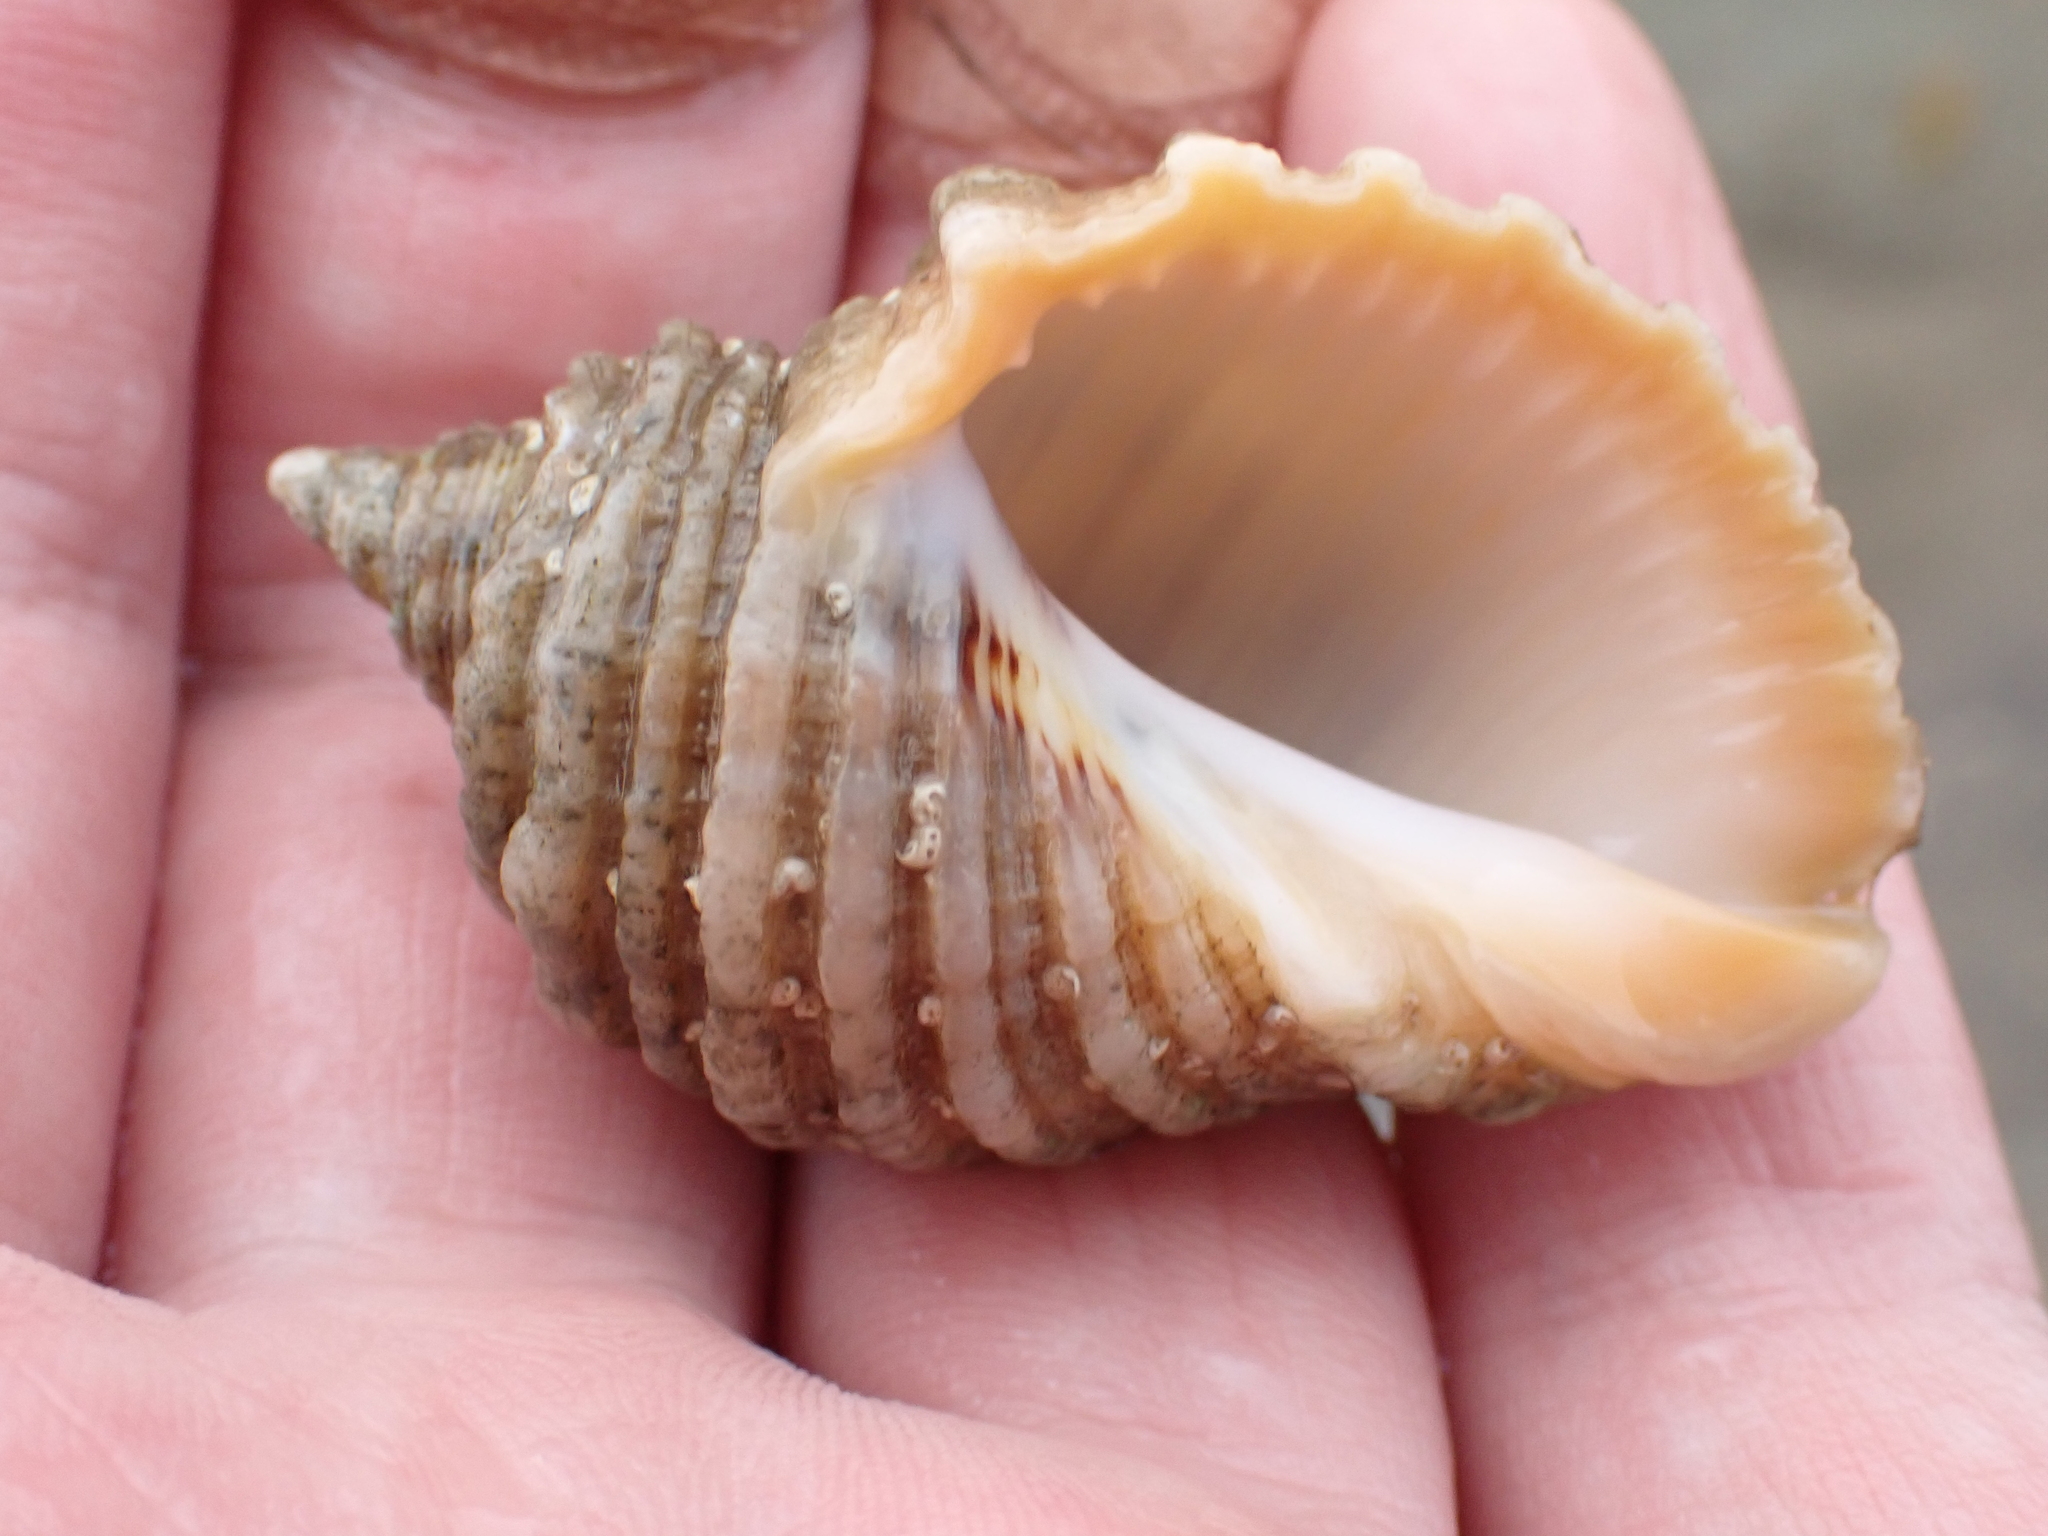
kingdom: Animalia
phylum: Mollusca
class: Gastropoda
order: Neogastropoda
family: Muricidae
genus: Dicathais
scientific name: Dicathais orbita
